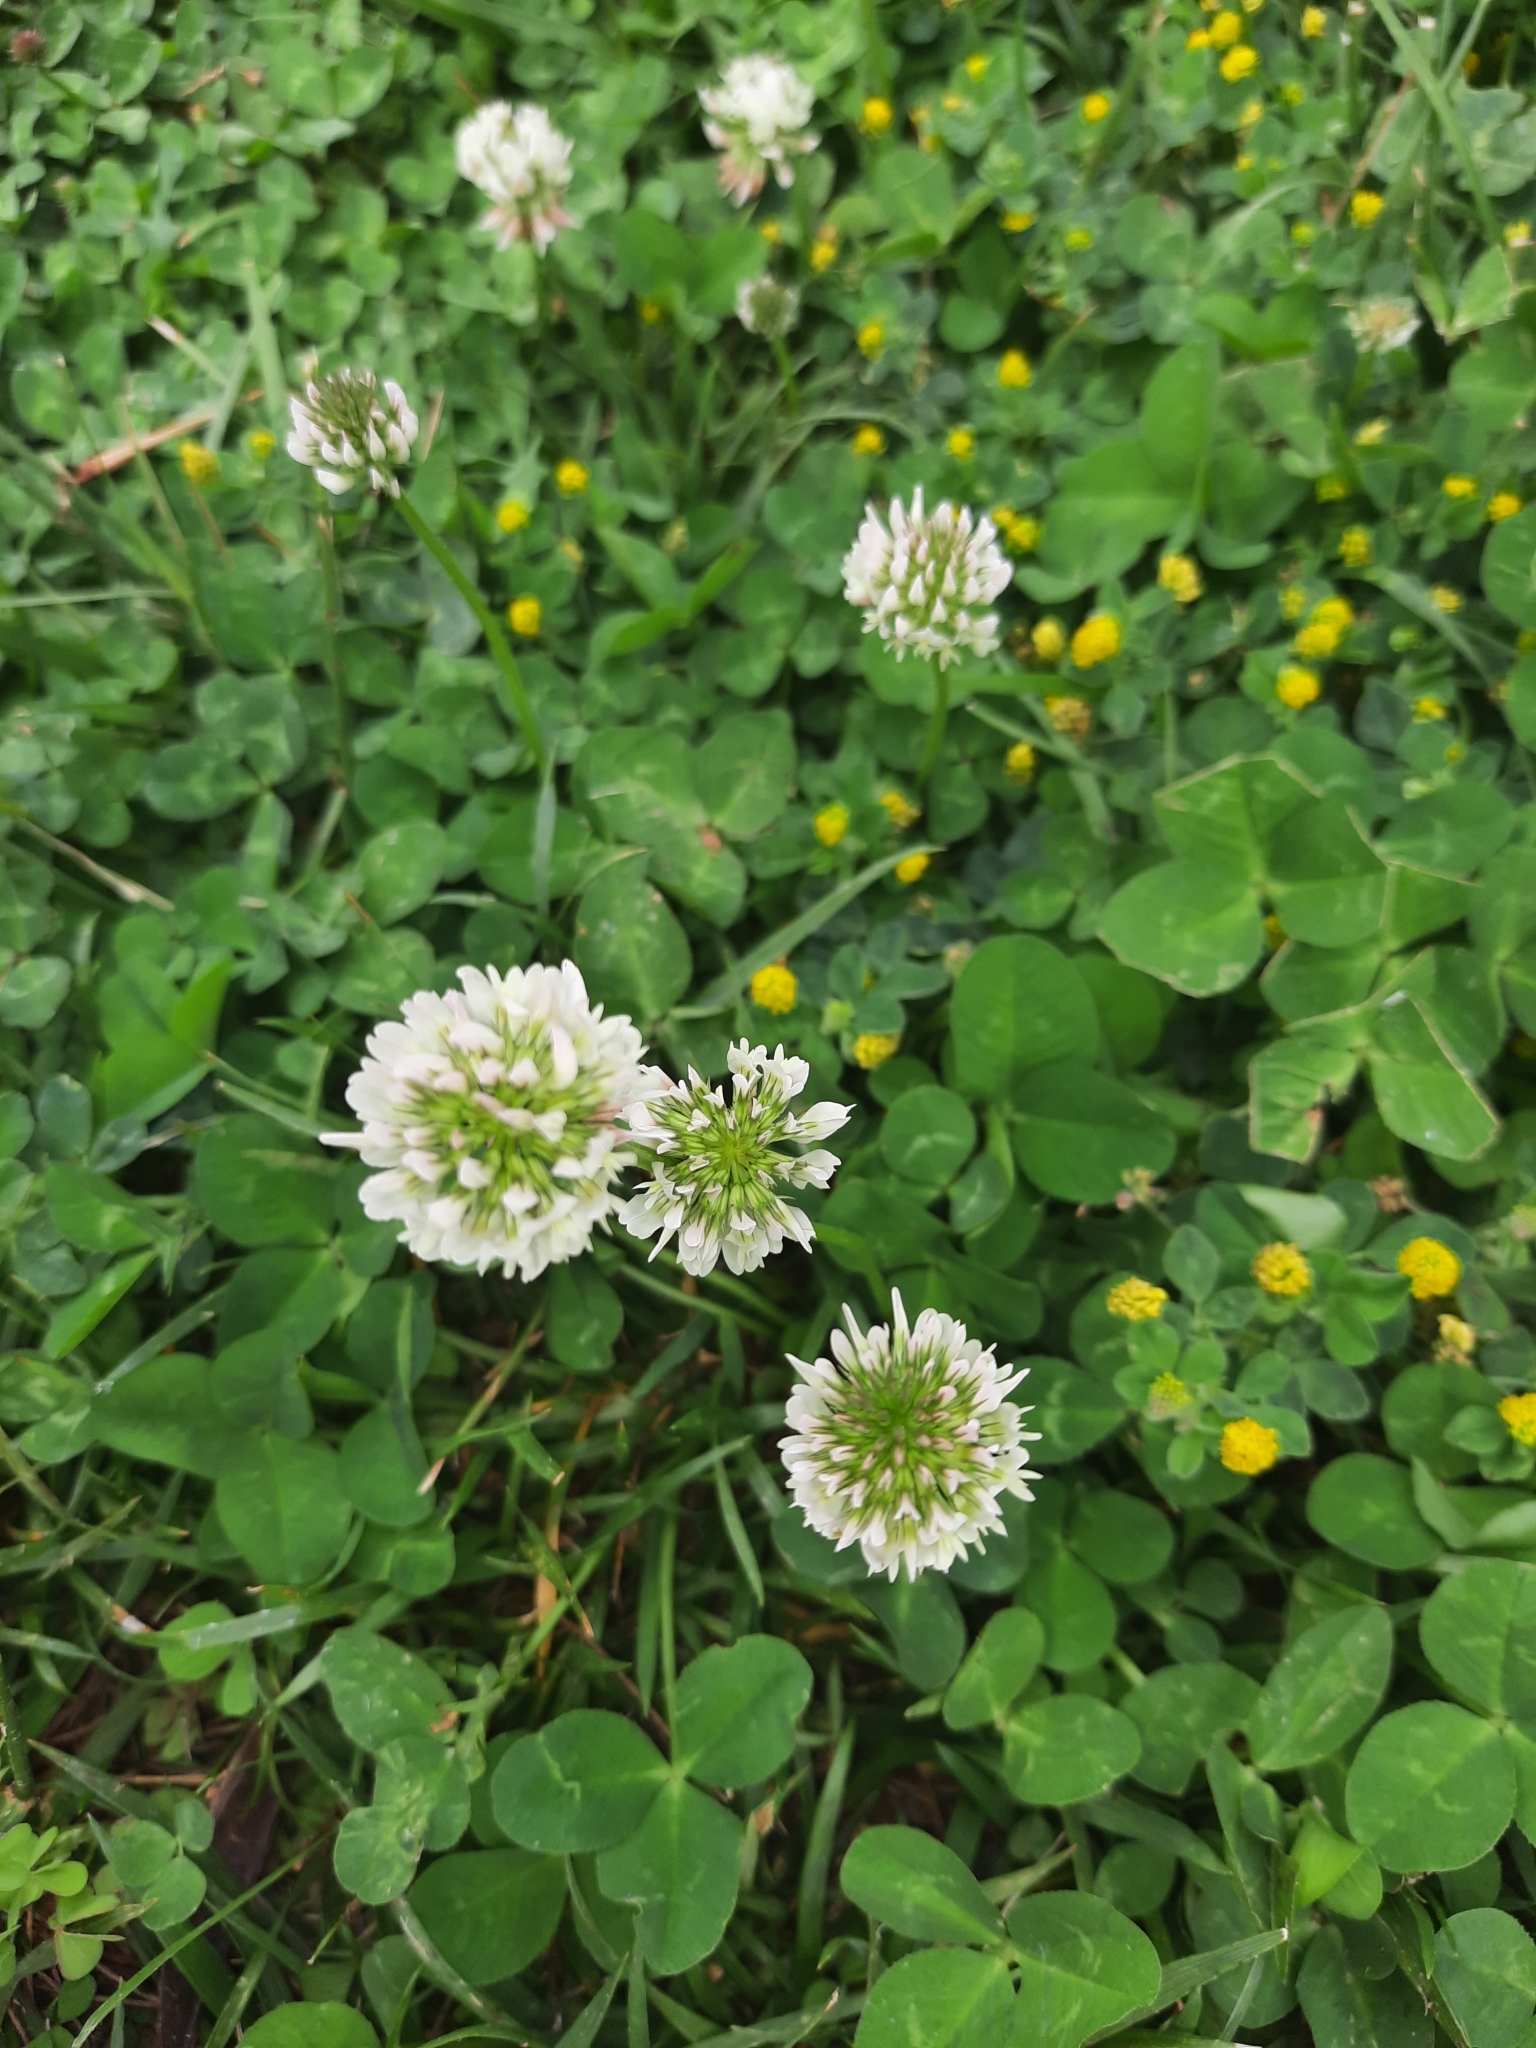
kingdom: Plantae
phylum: Tracheophyta
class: Magnoliopsida
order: Fabales
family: Fabaceae
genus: Trifolium
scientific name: Trifolium repens
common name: White clover
